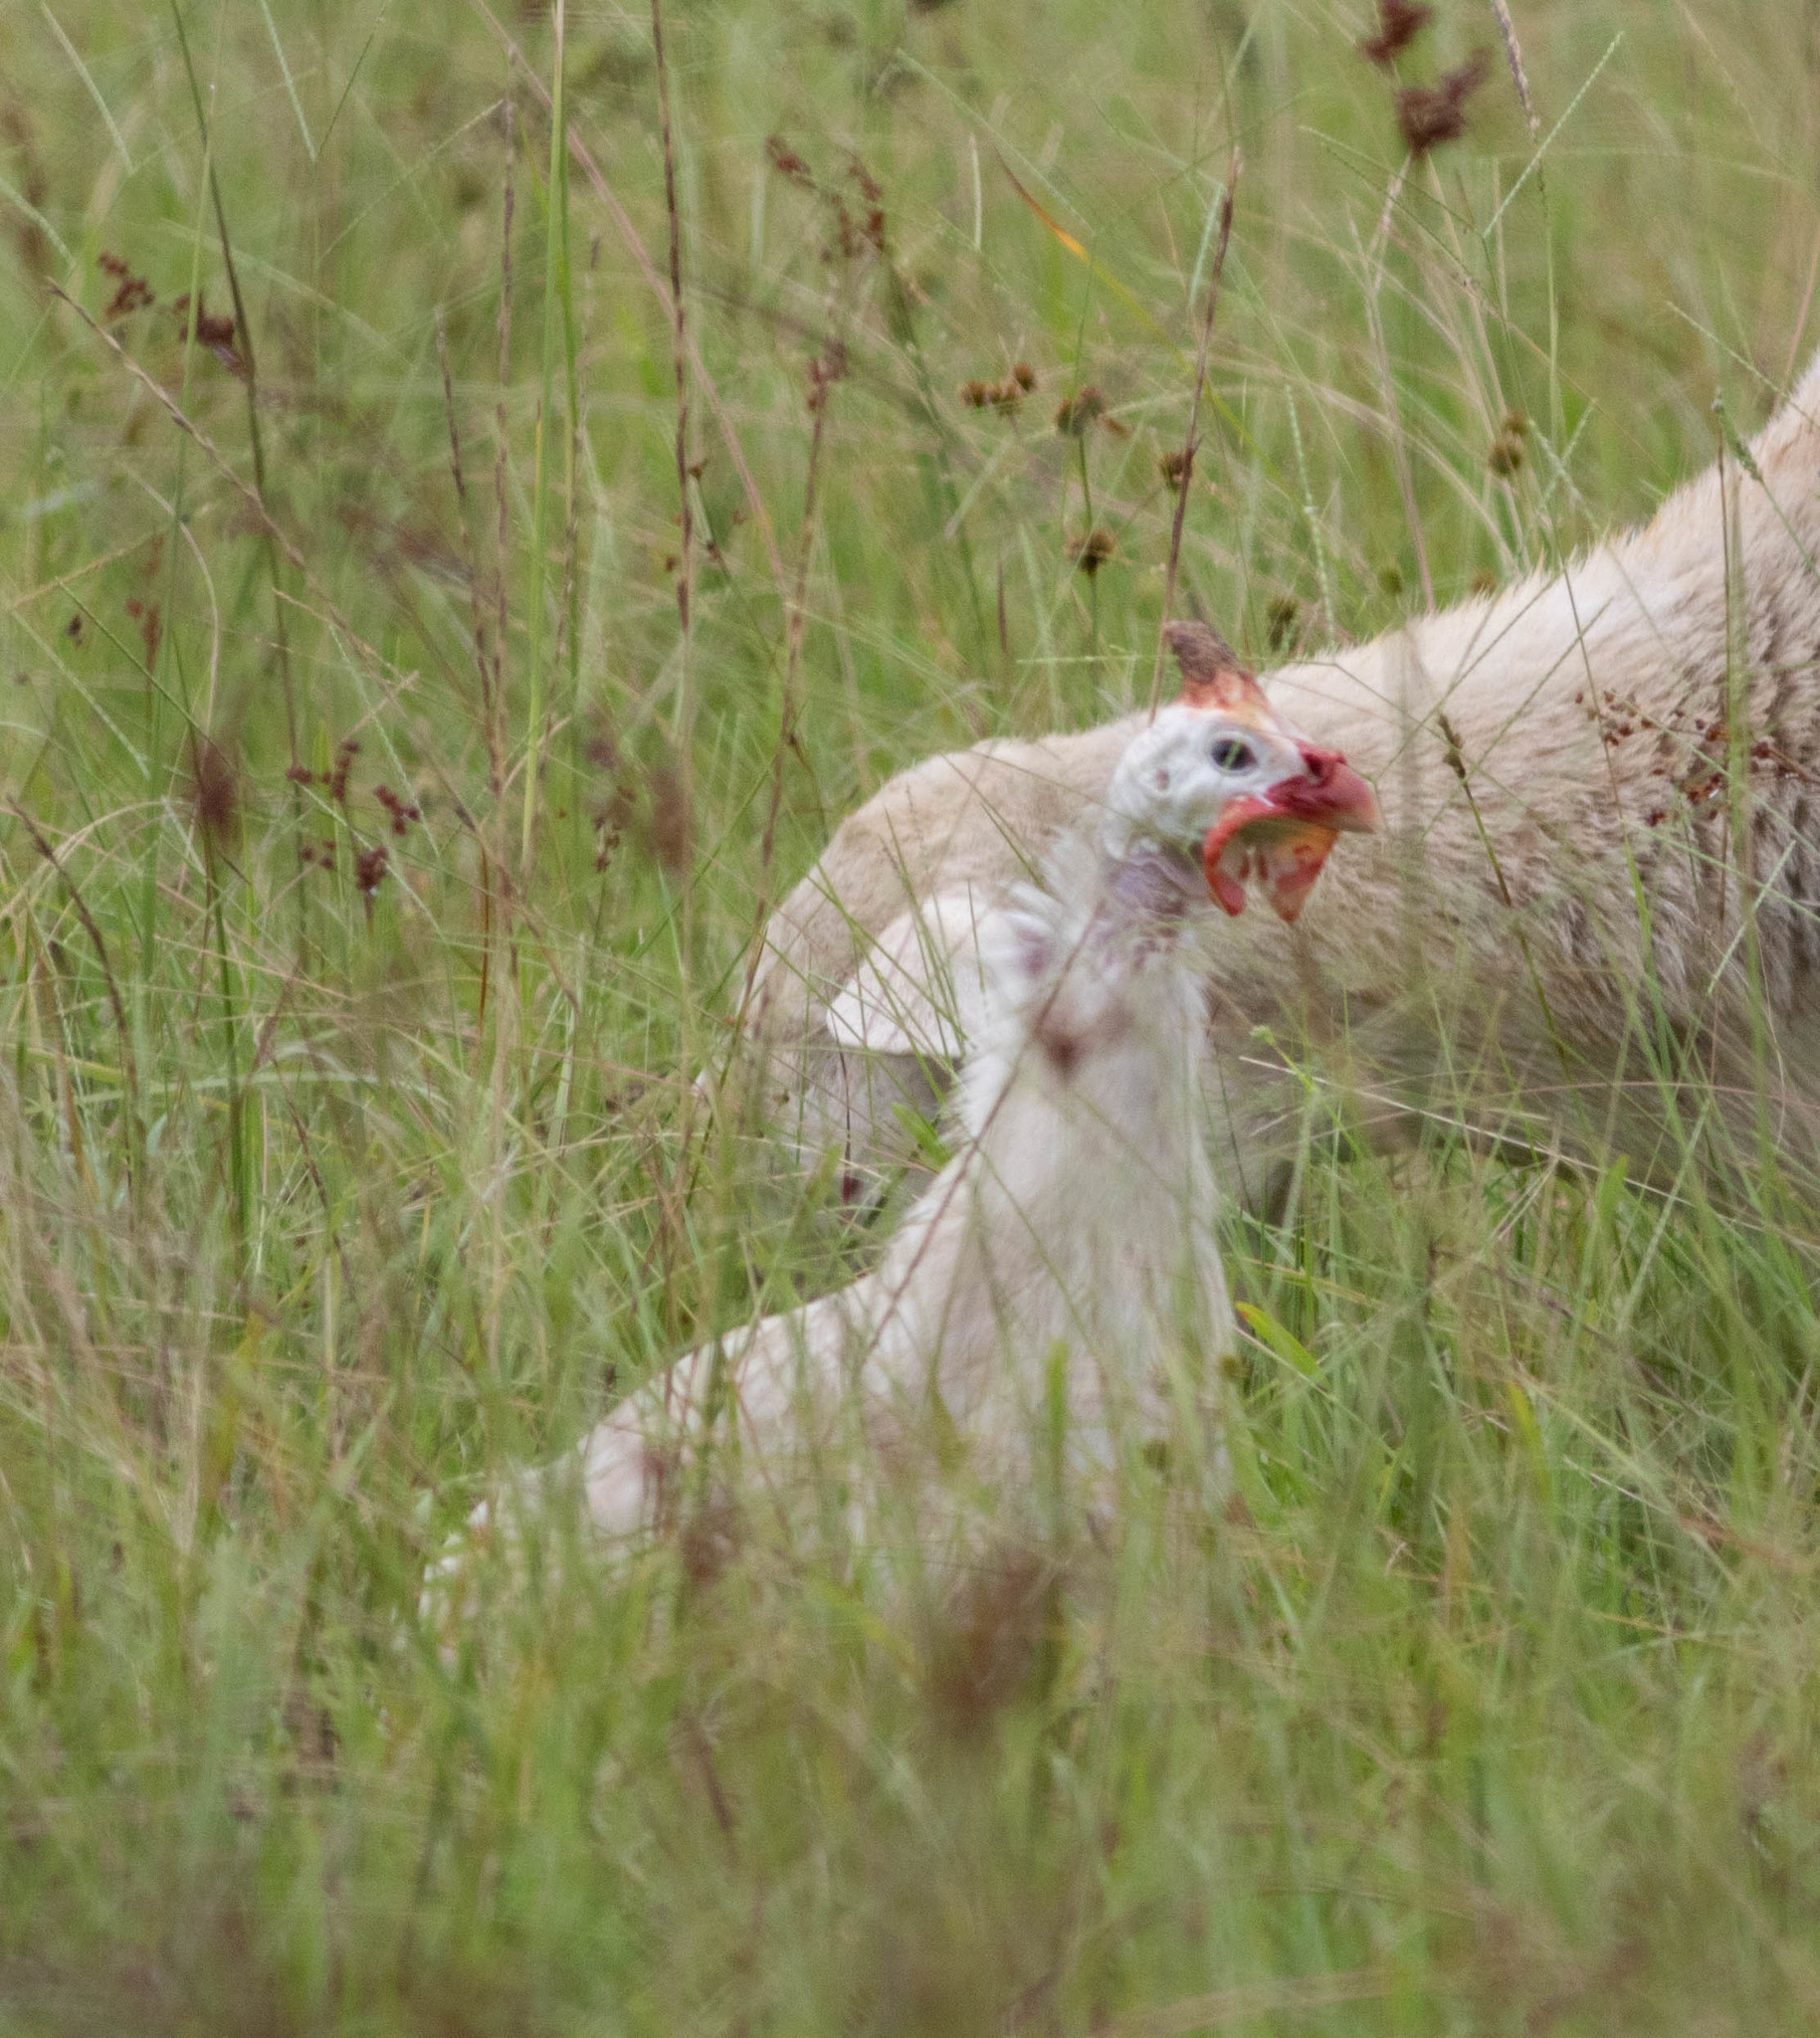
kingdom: Animalia
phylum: Chordata
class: Aves
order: Galliformes
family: Numididae
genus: Numida
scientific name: Numida meleagris
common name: Helmeted guineafowl
